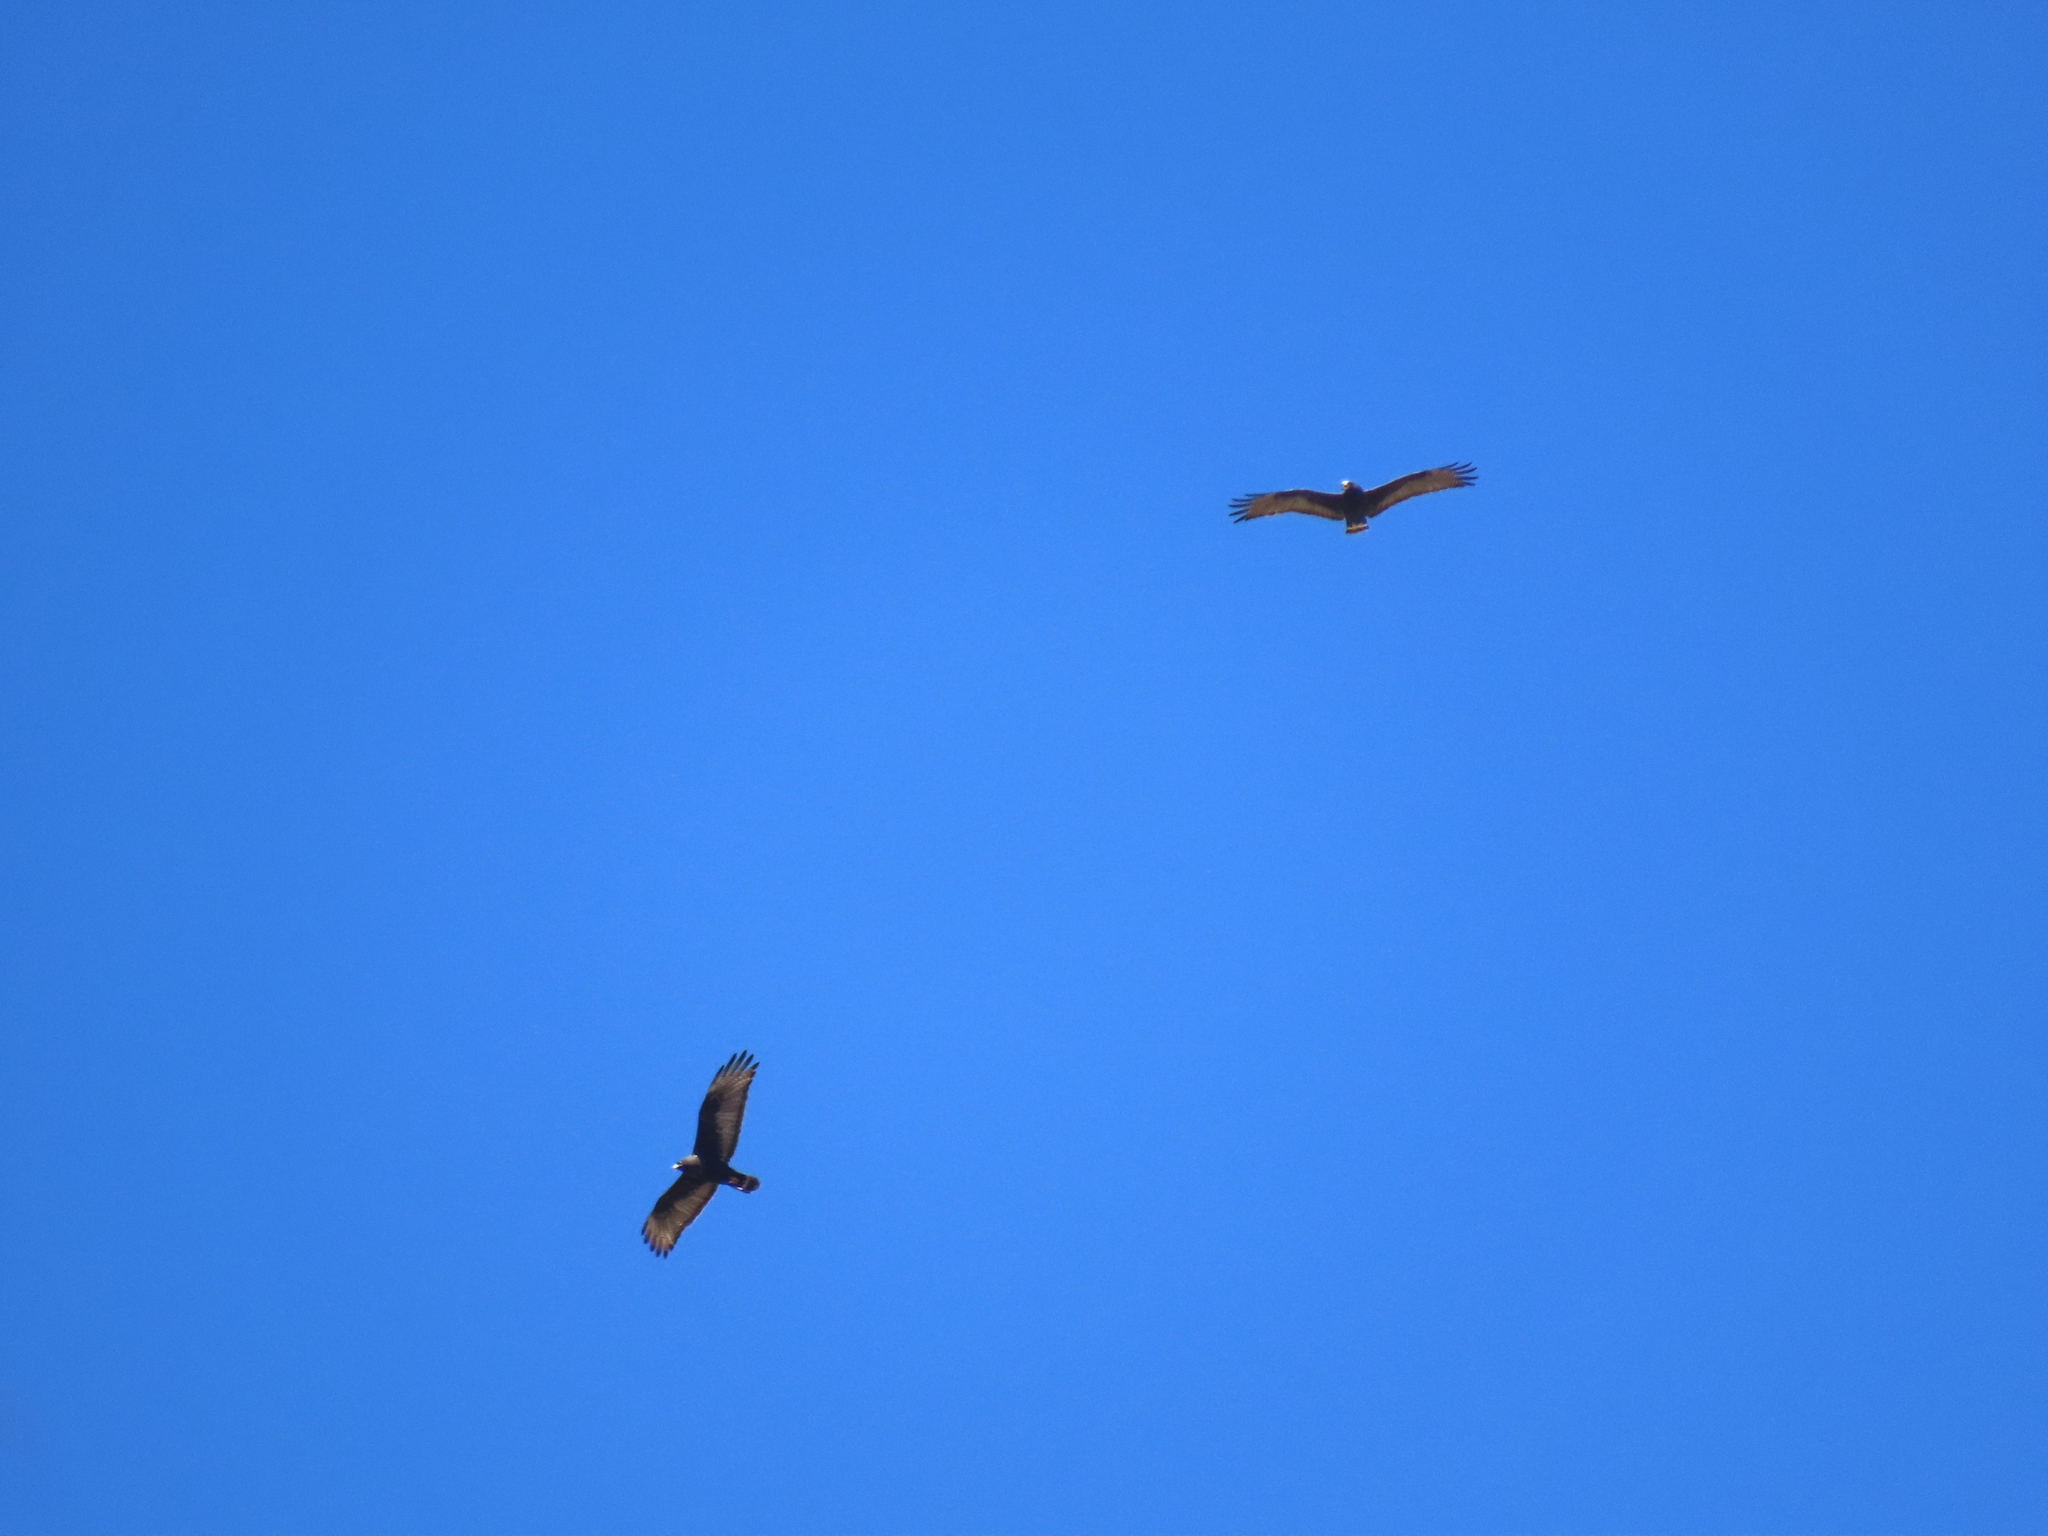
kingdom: Animalia
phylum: Chordata
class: Aves
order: Accipitriformes
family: Accipitridae
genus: Buteo
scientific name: Buteo albonotatus
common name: Zone-tailed hawk
